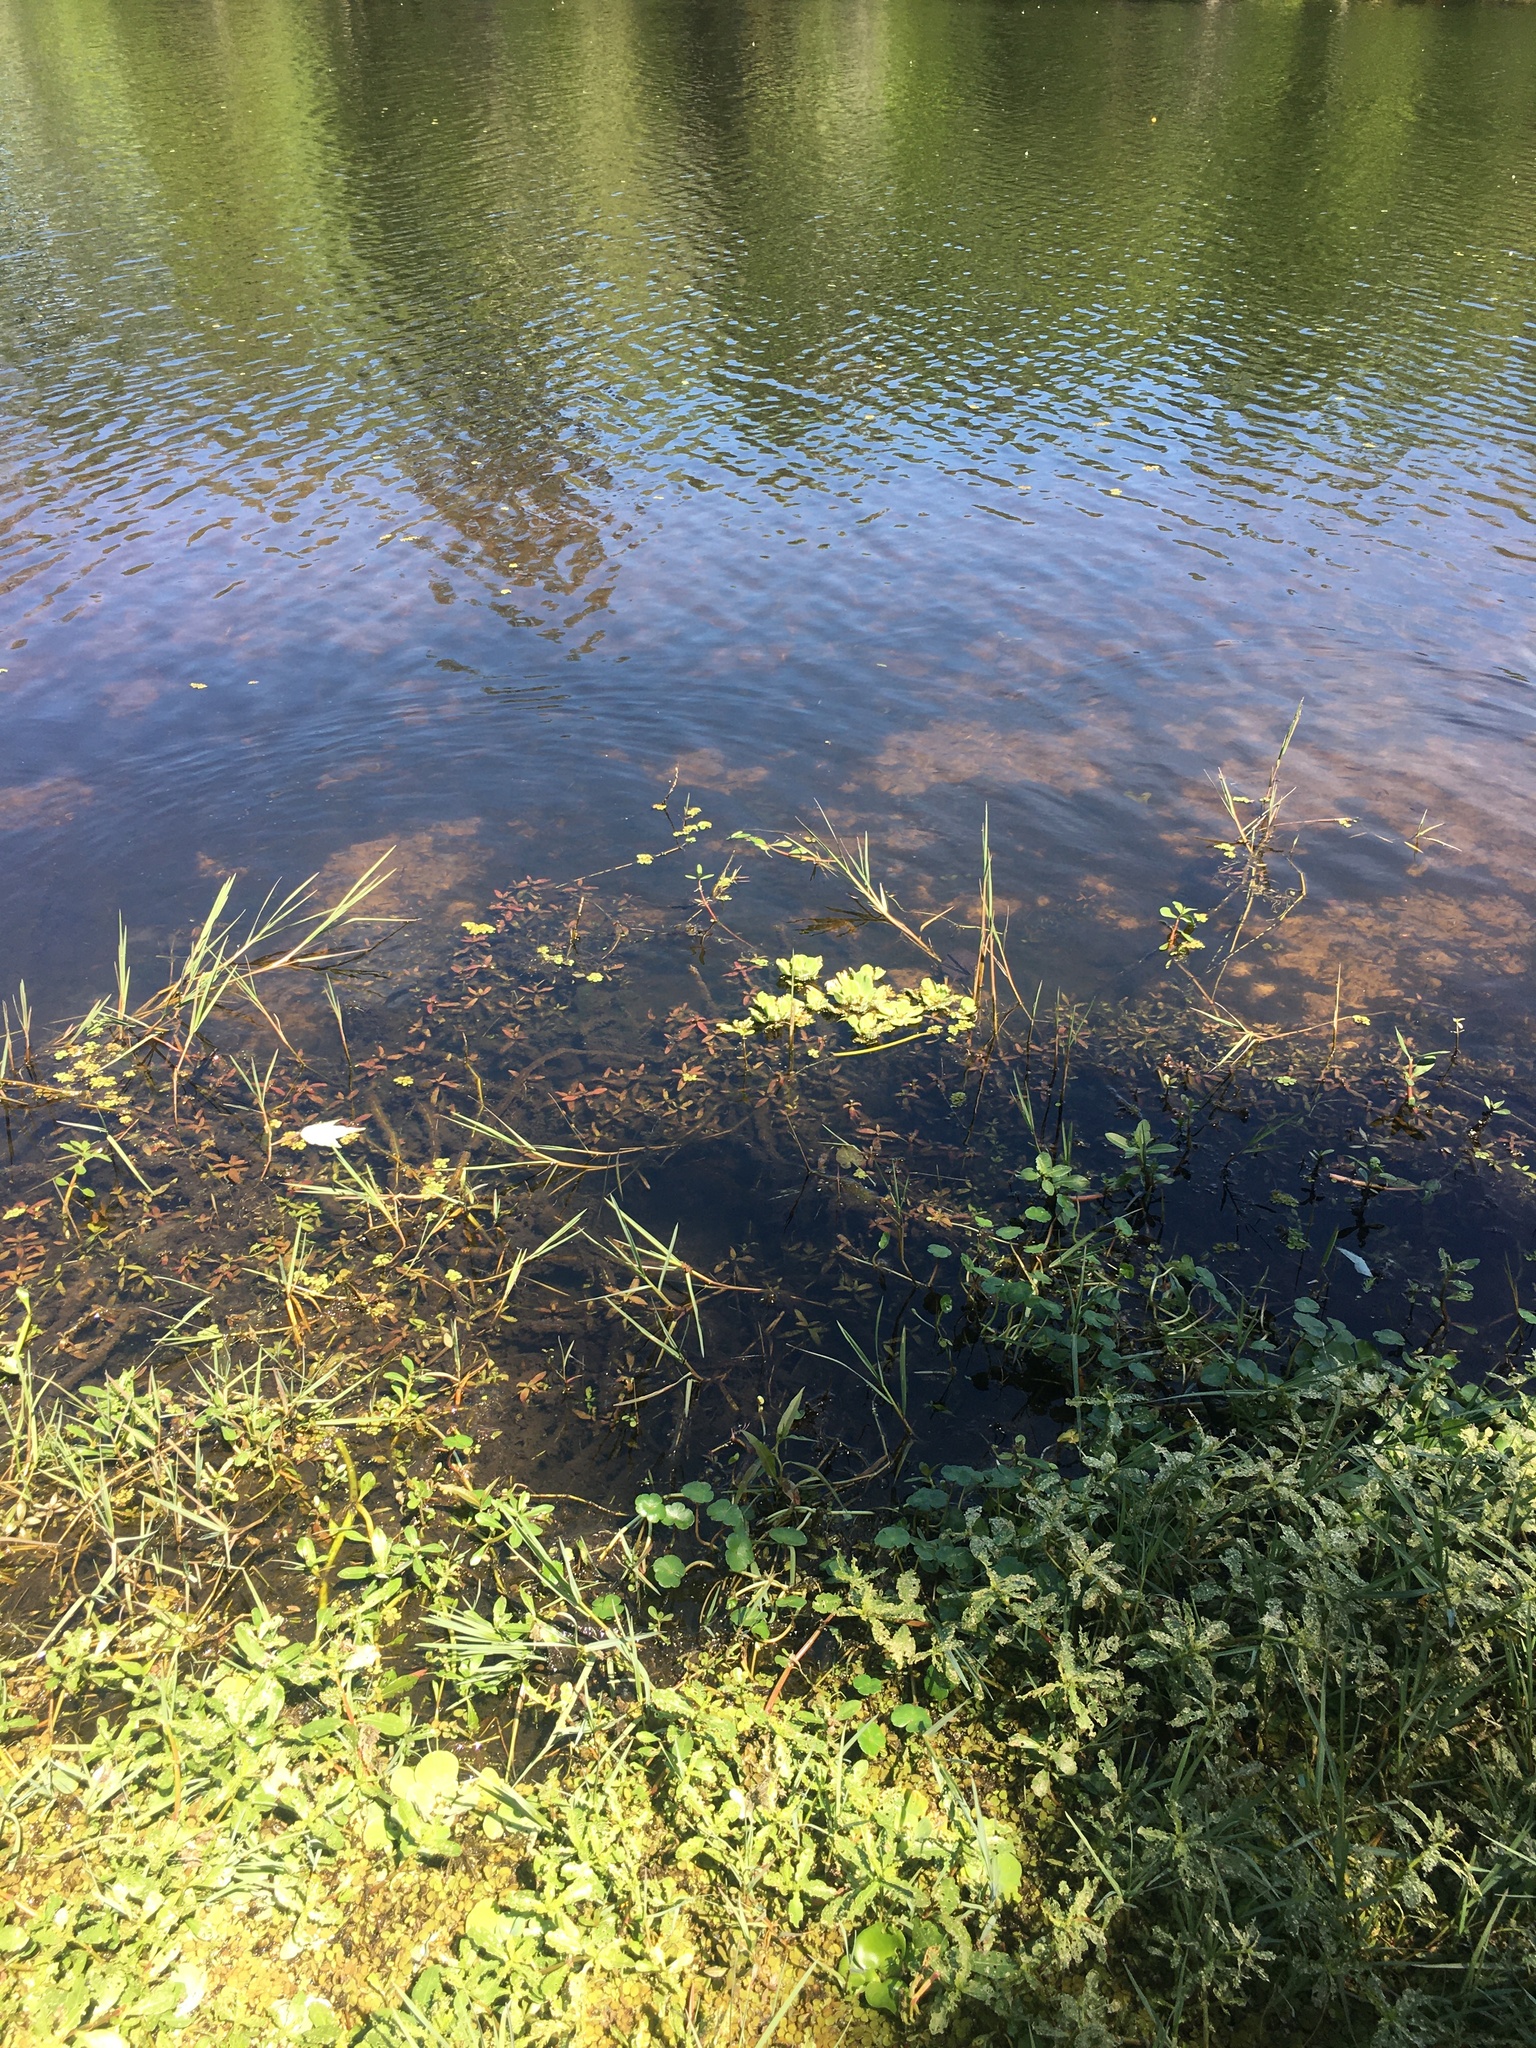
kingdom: Plantae
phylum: Tracheophyta
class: Liliopsida
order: Alismatales
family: Araceae
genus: Pistia
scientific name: Pistia stratiotes
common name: Water lettuce
